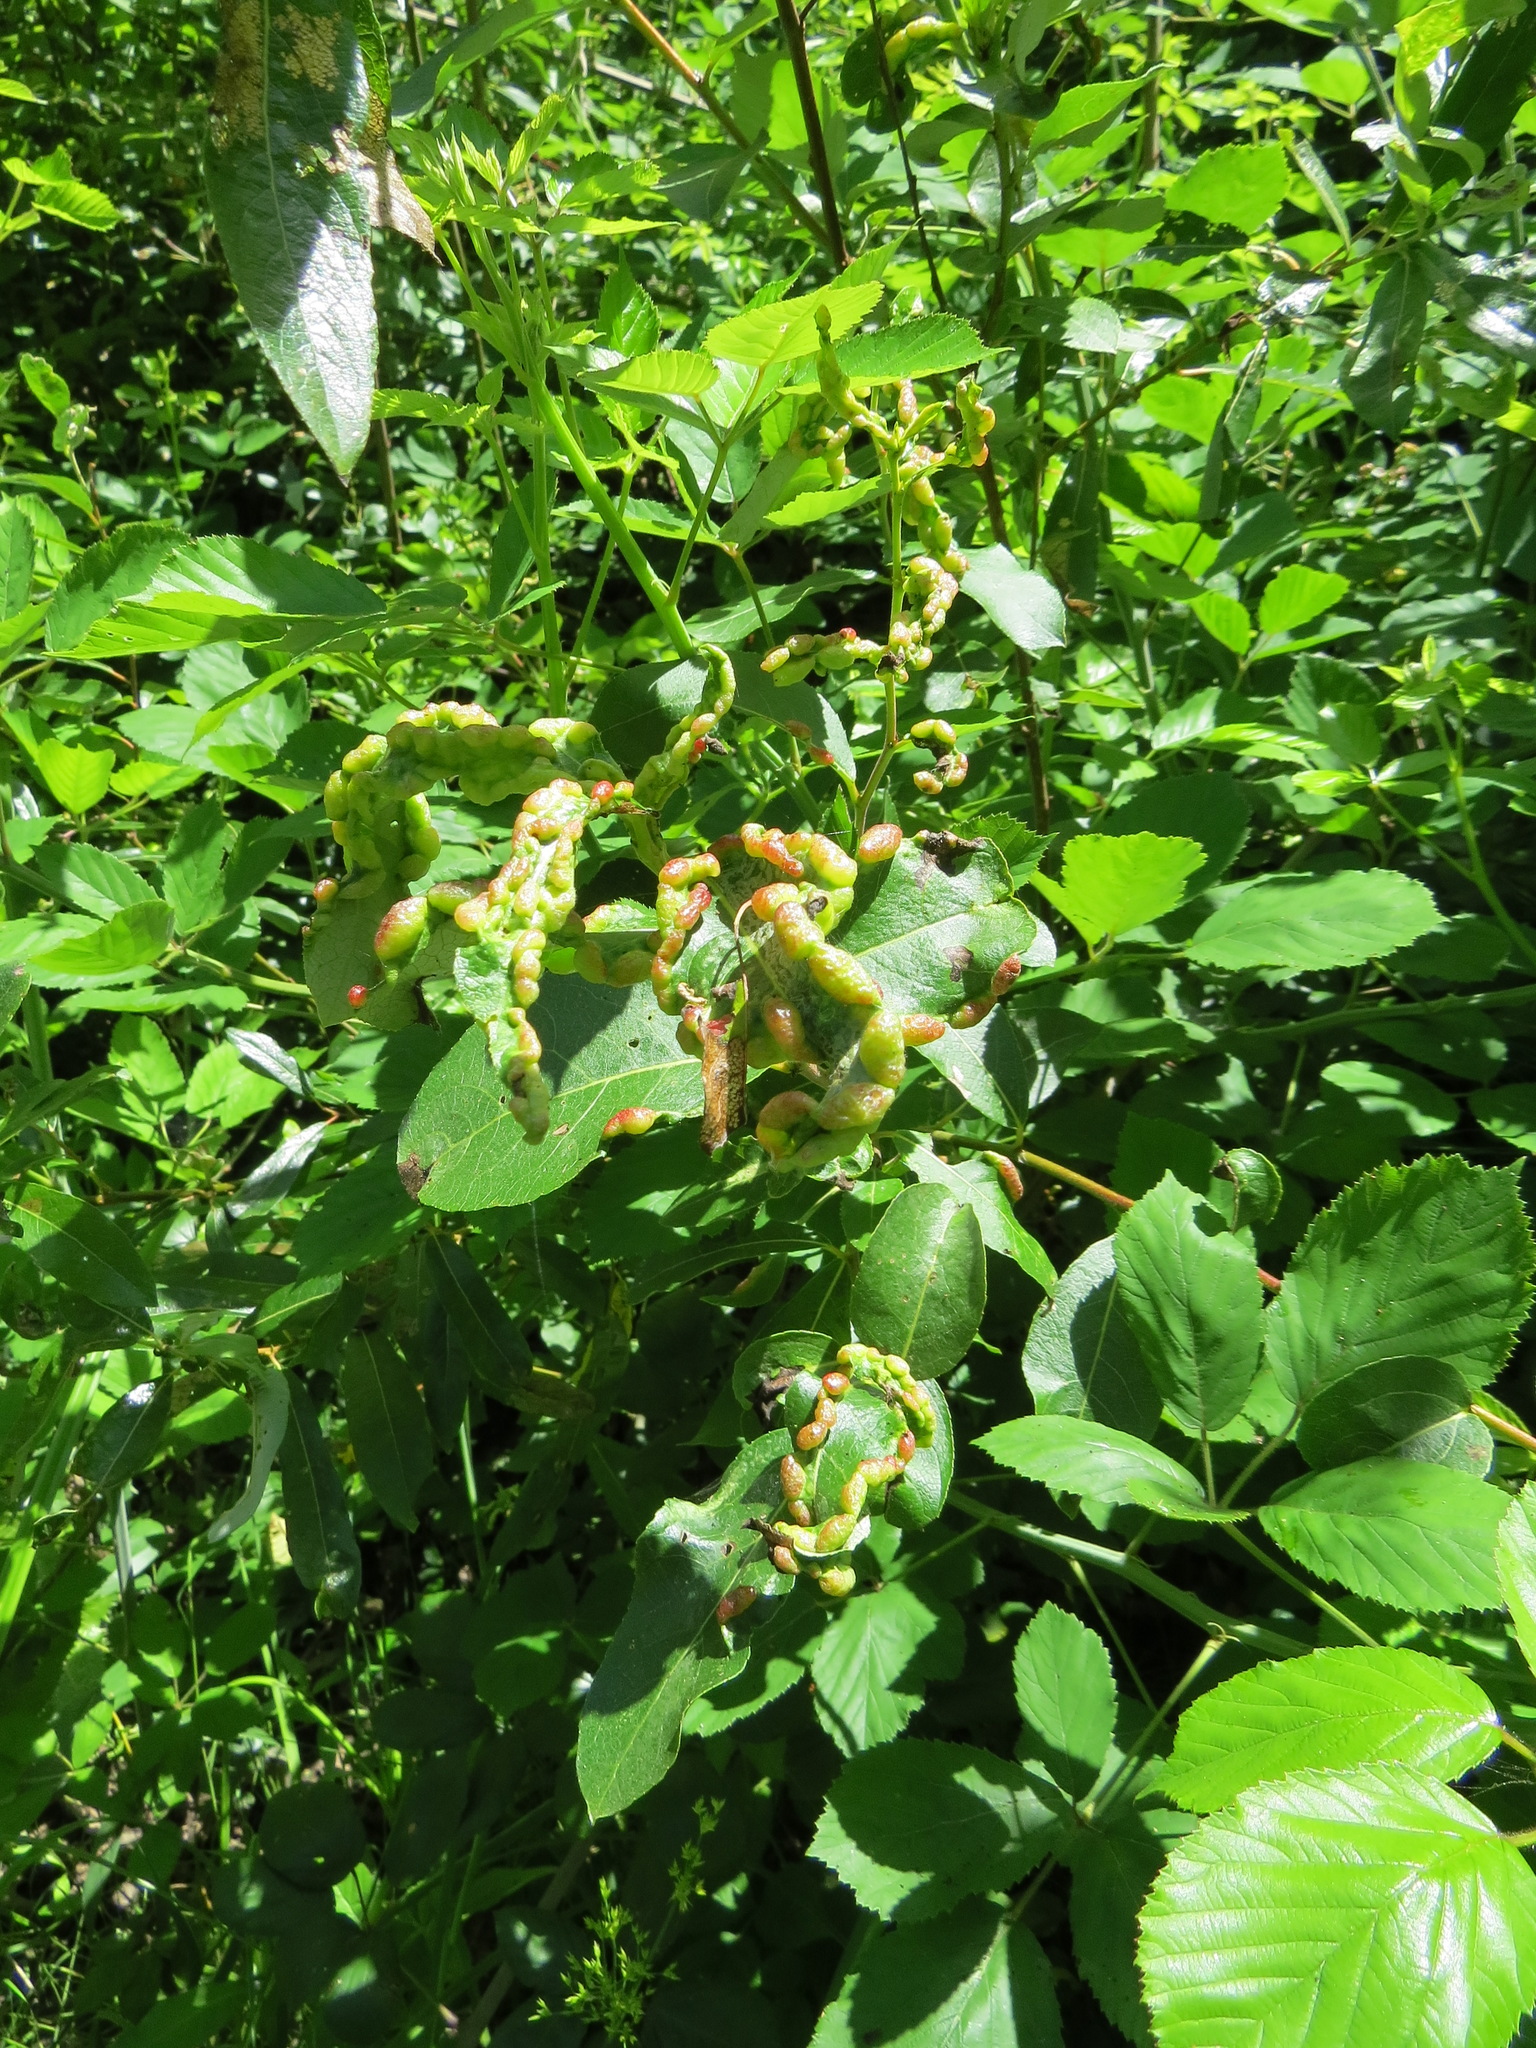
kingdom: Animalia
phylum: Arthropoda
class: Insecta
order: Hemiptera
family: Aphididae
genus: Thecabius
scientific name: Thecabius populimonilis
